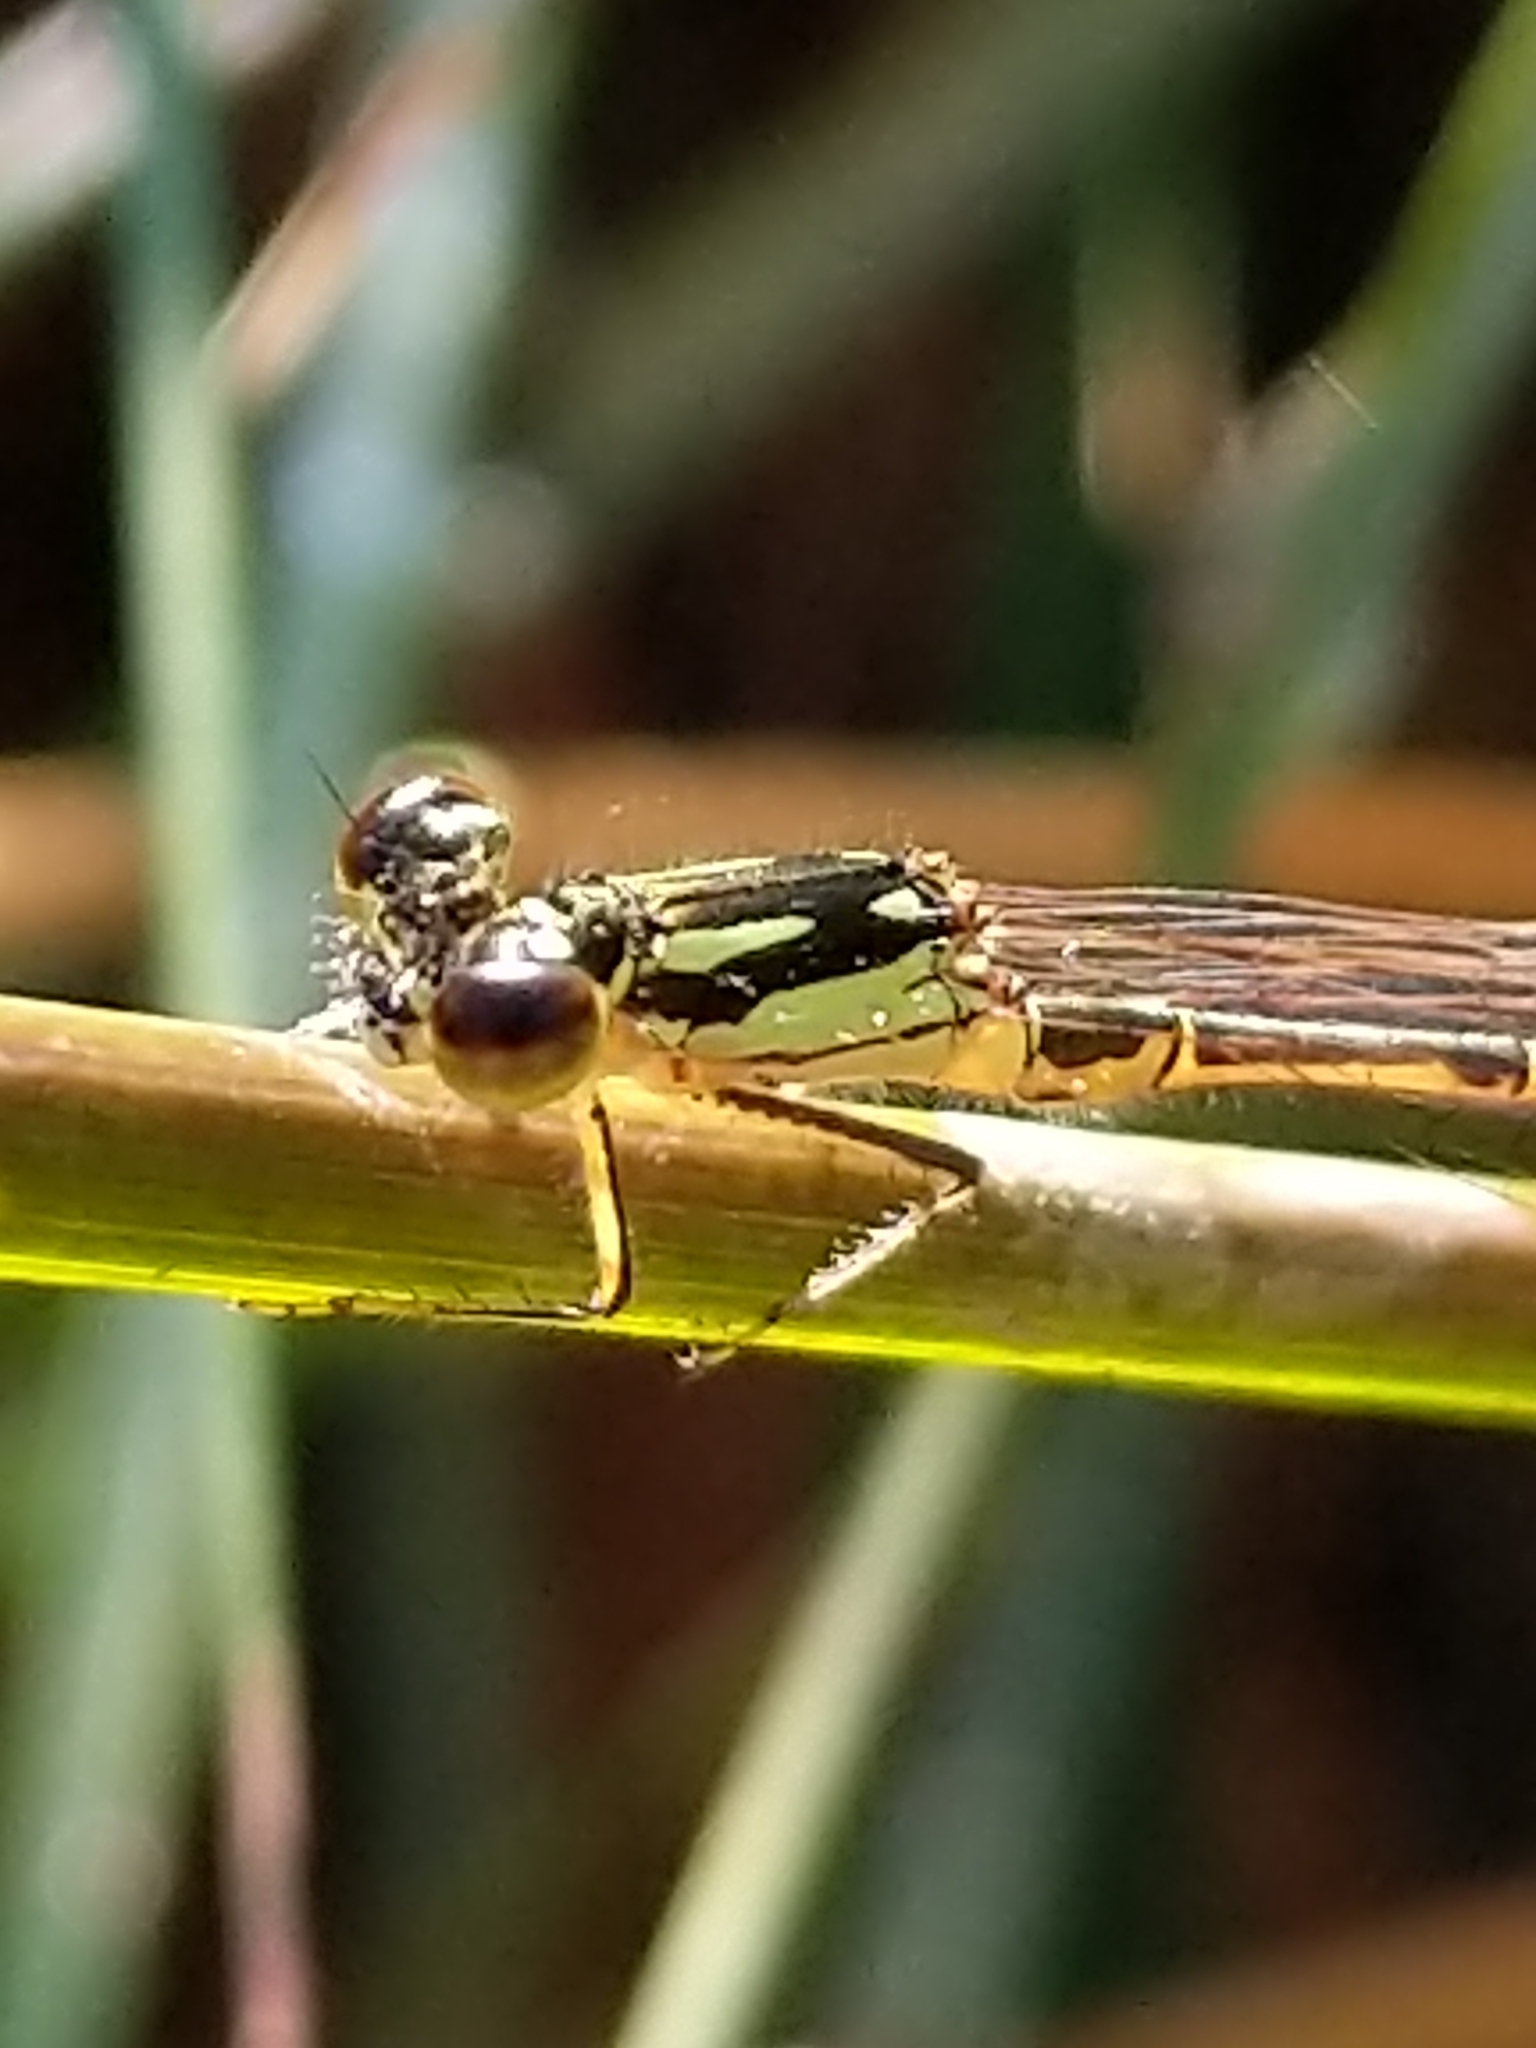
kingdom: Animalia
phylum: Arthropoda
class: Insecta
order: Odonata
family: Coenagrionidae
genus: Ischnura
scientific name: Ischnura posita
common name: Fragile forktail
